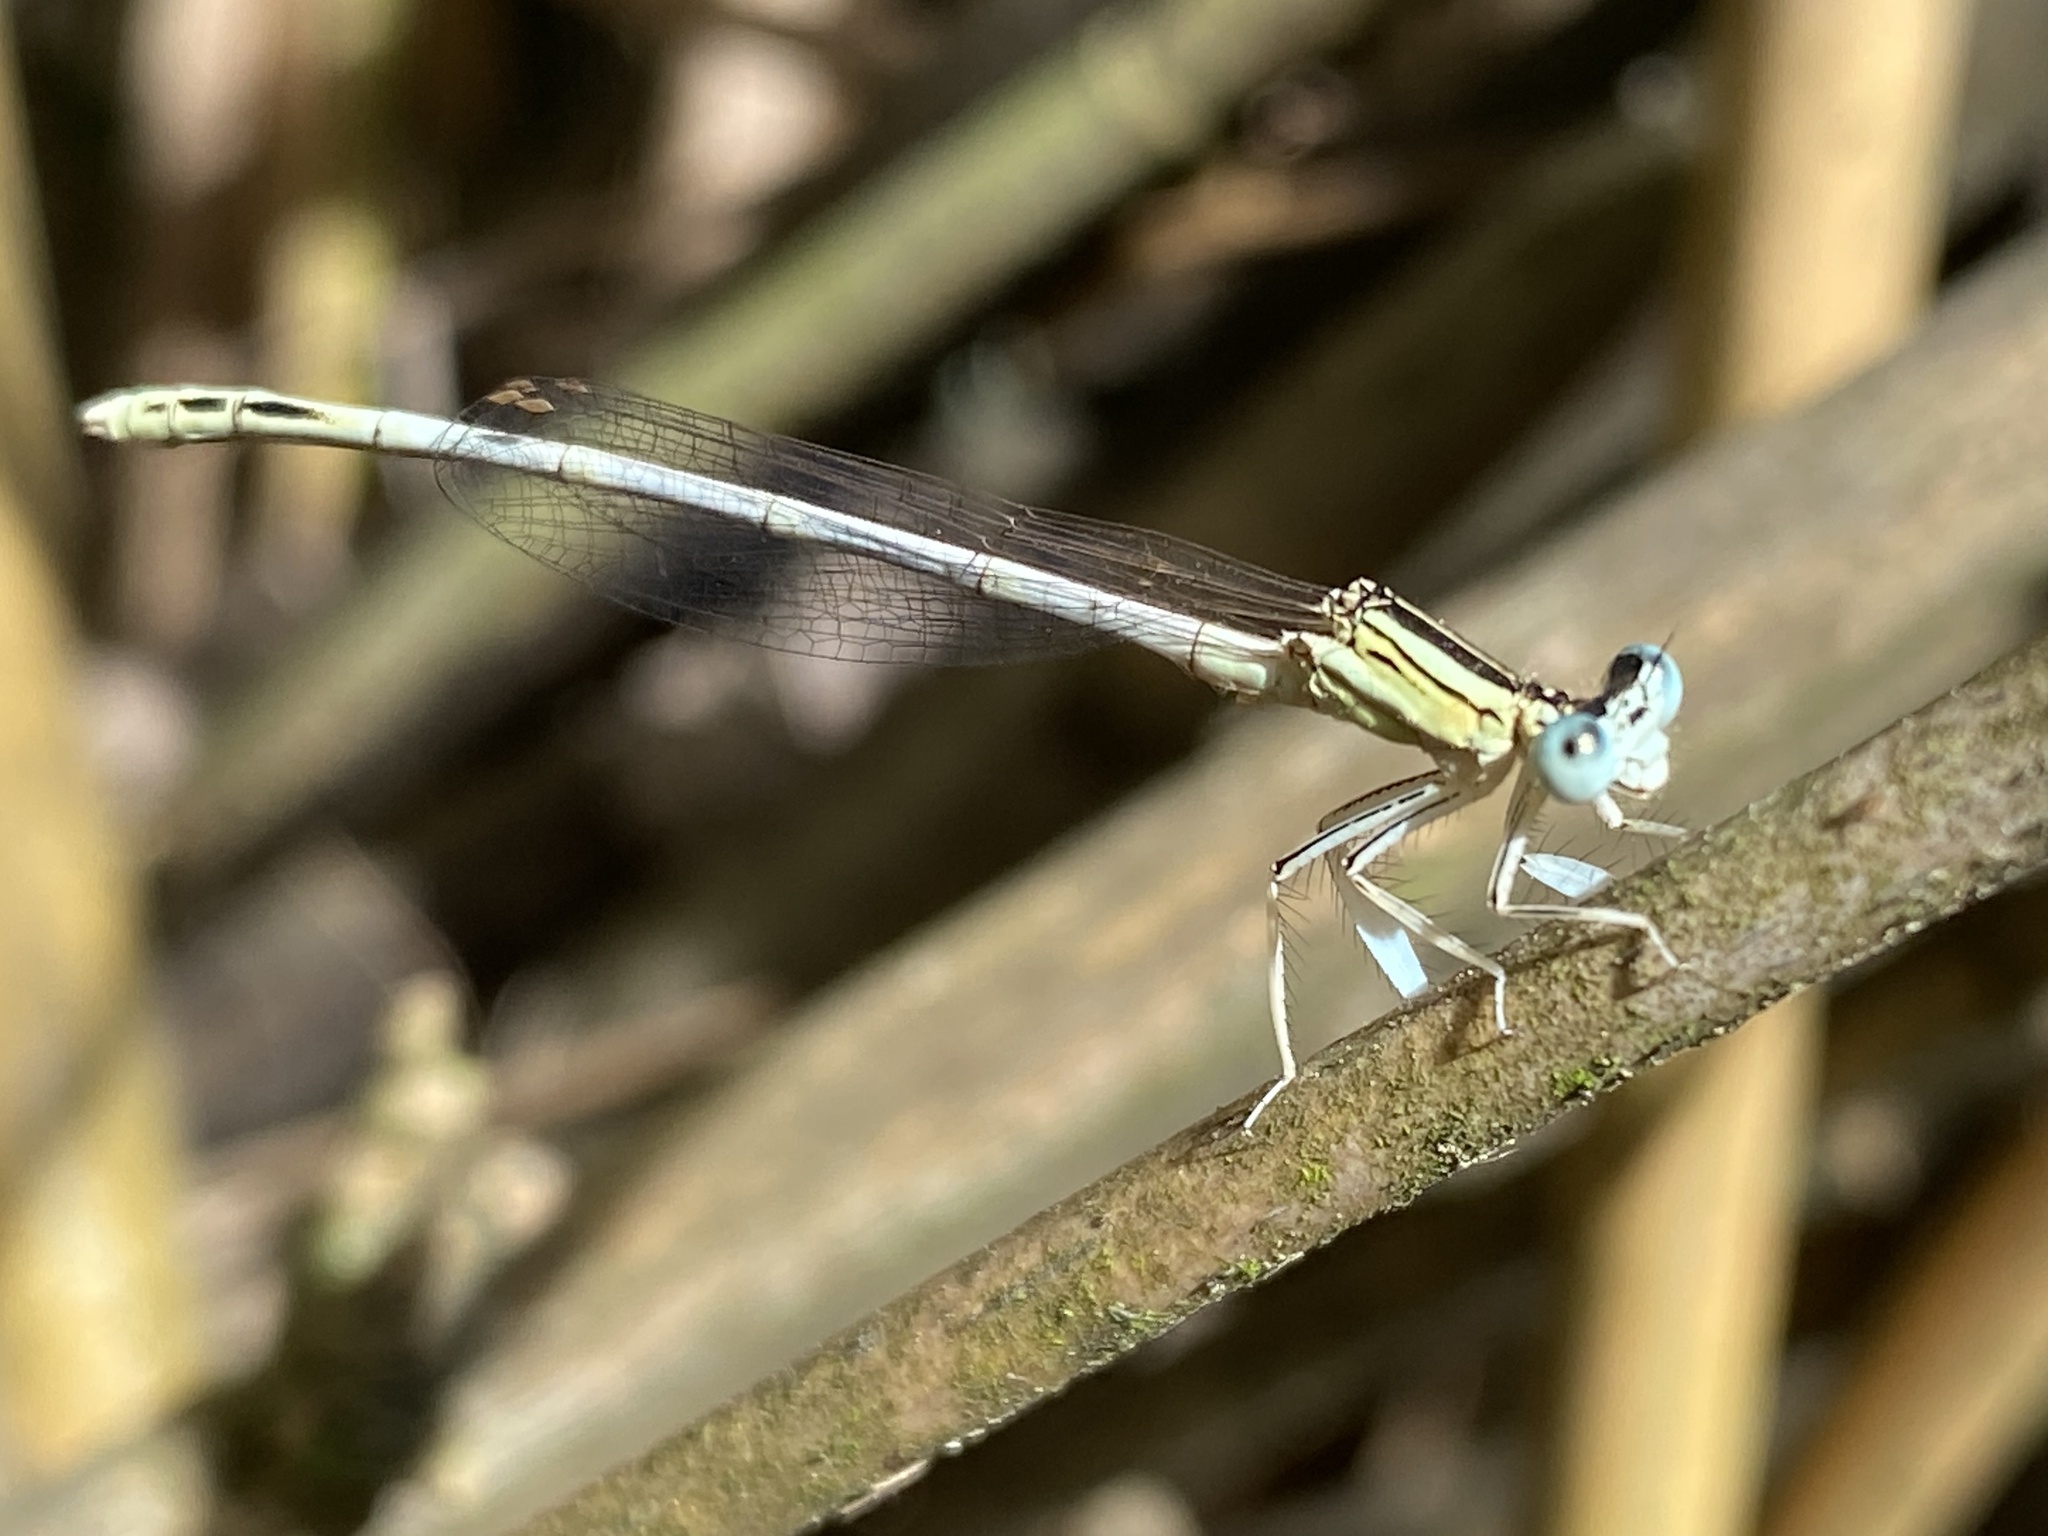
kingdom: Animalia
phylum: Arthropoda
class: Insecta
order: Odonata
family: Platycnemididae
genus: Platycnemis
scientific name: Platycnemis latipes
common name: White featherleg
